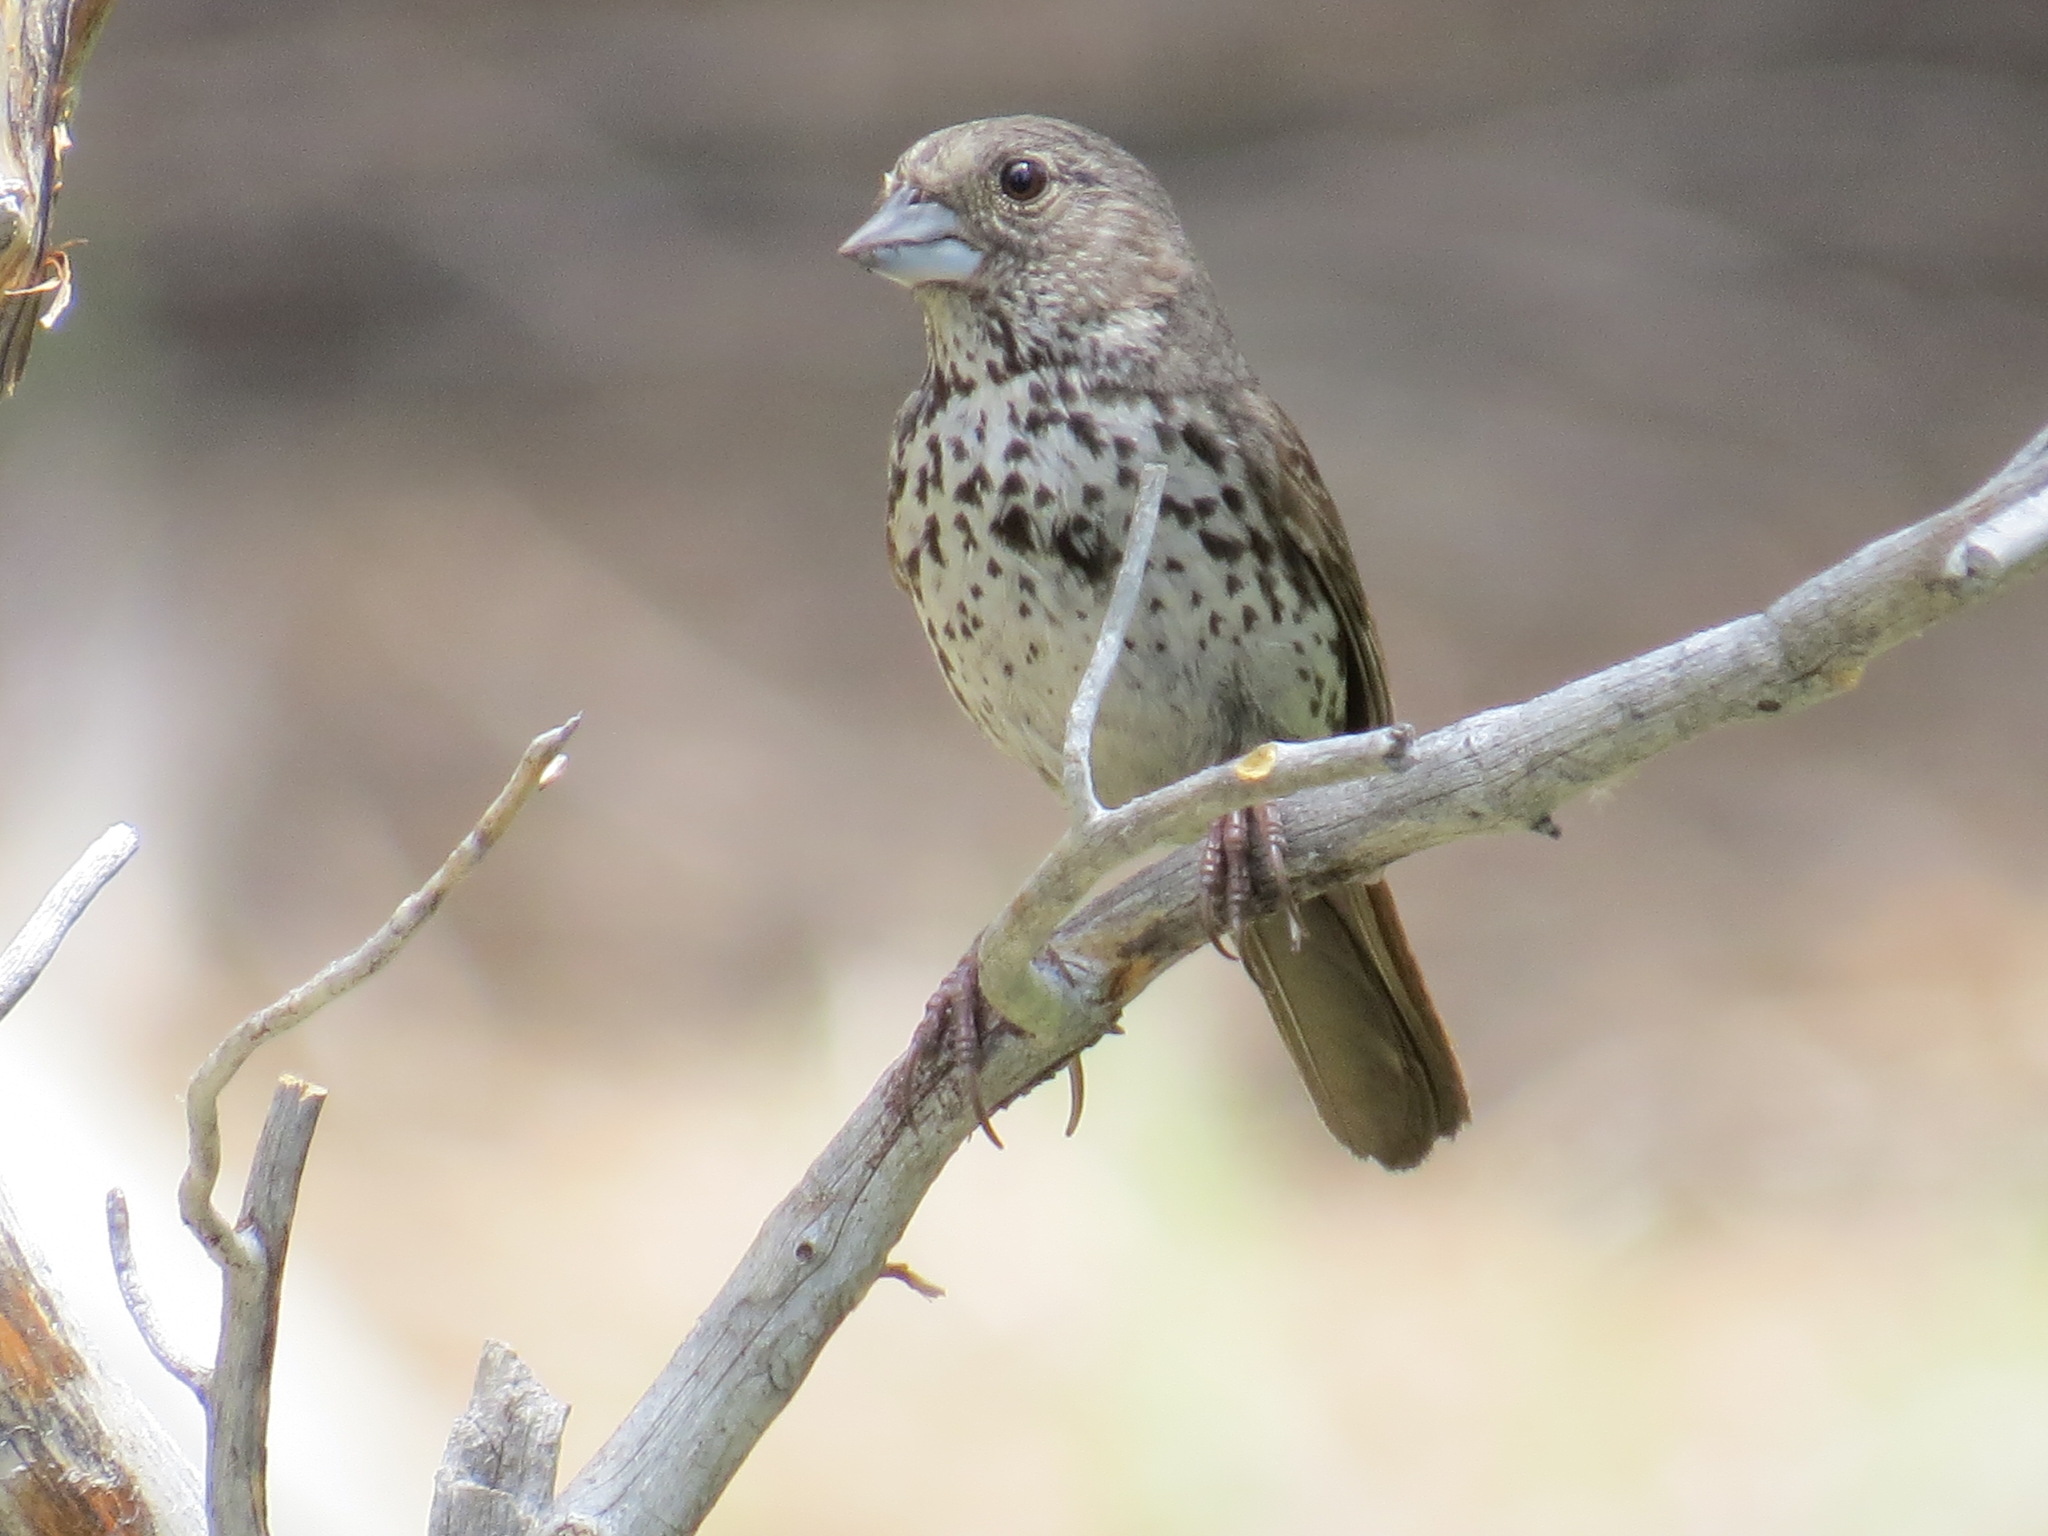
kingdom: Animalia
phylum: Chordata
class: Aves
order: Passeriformes
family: Passerellidae
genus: Passerella
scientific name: Passerella iliaca
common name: Fox sparrow
